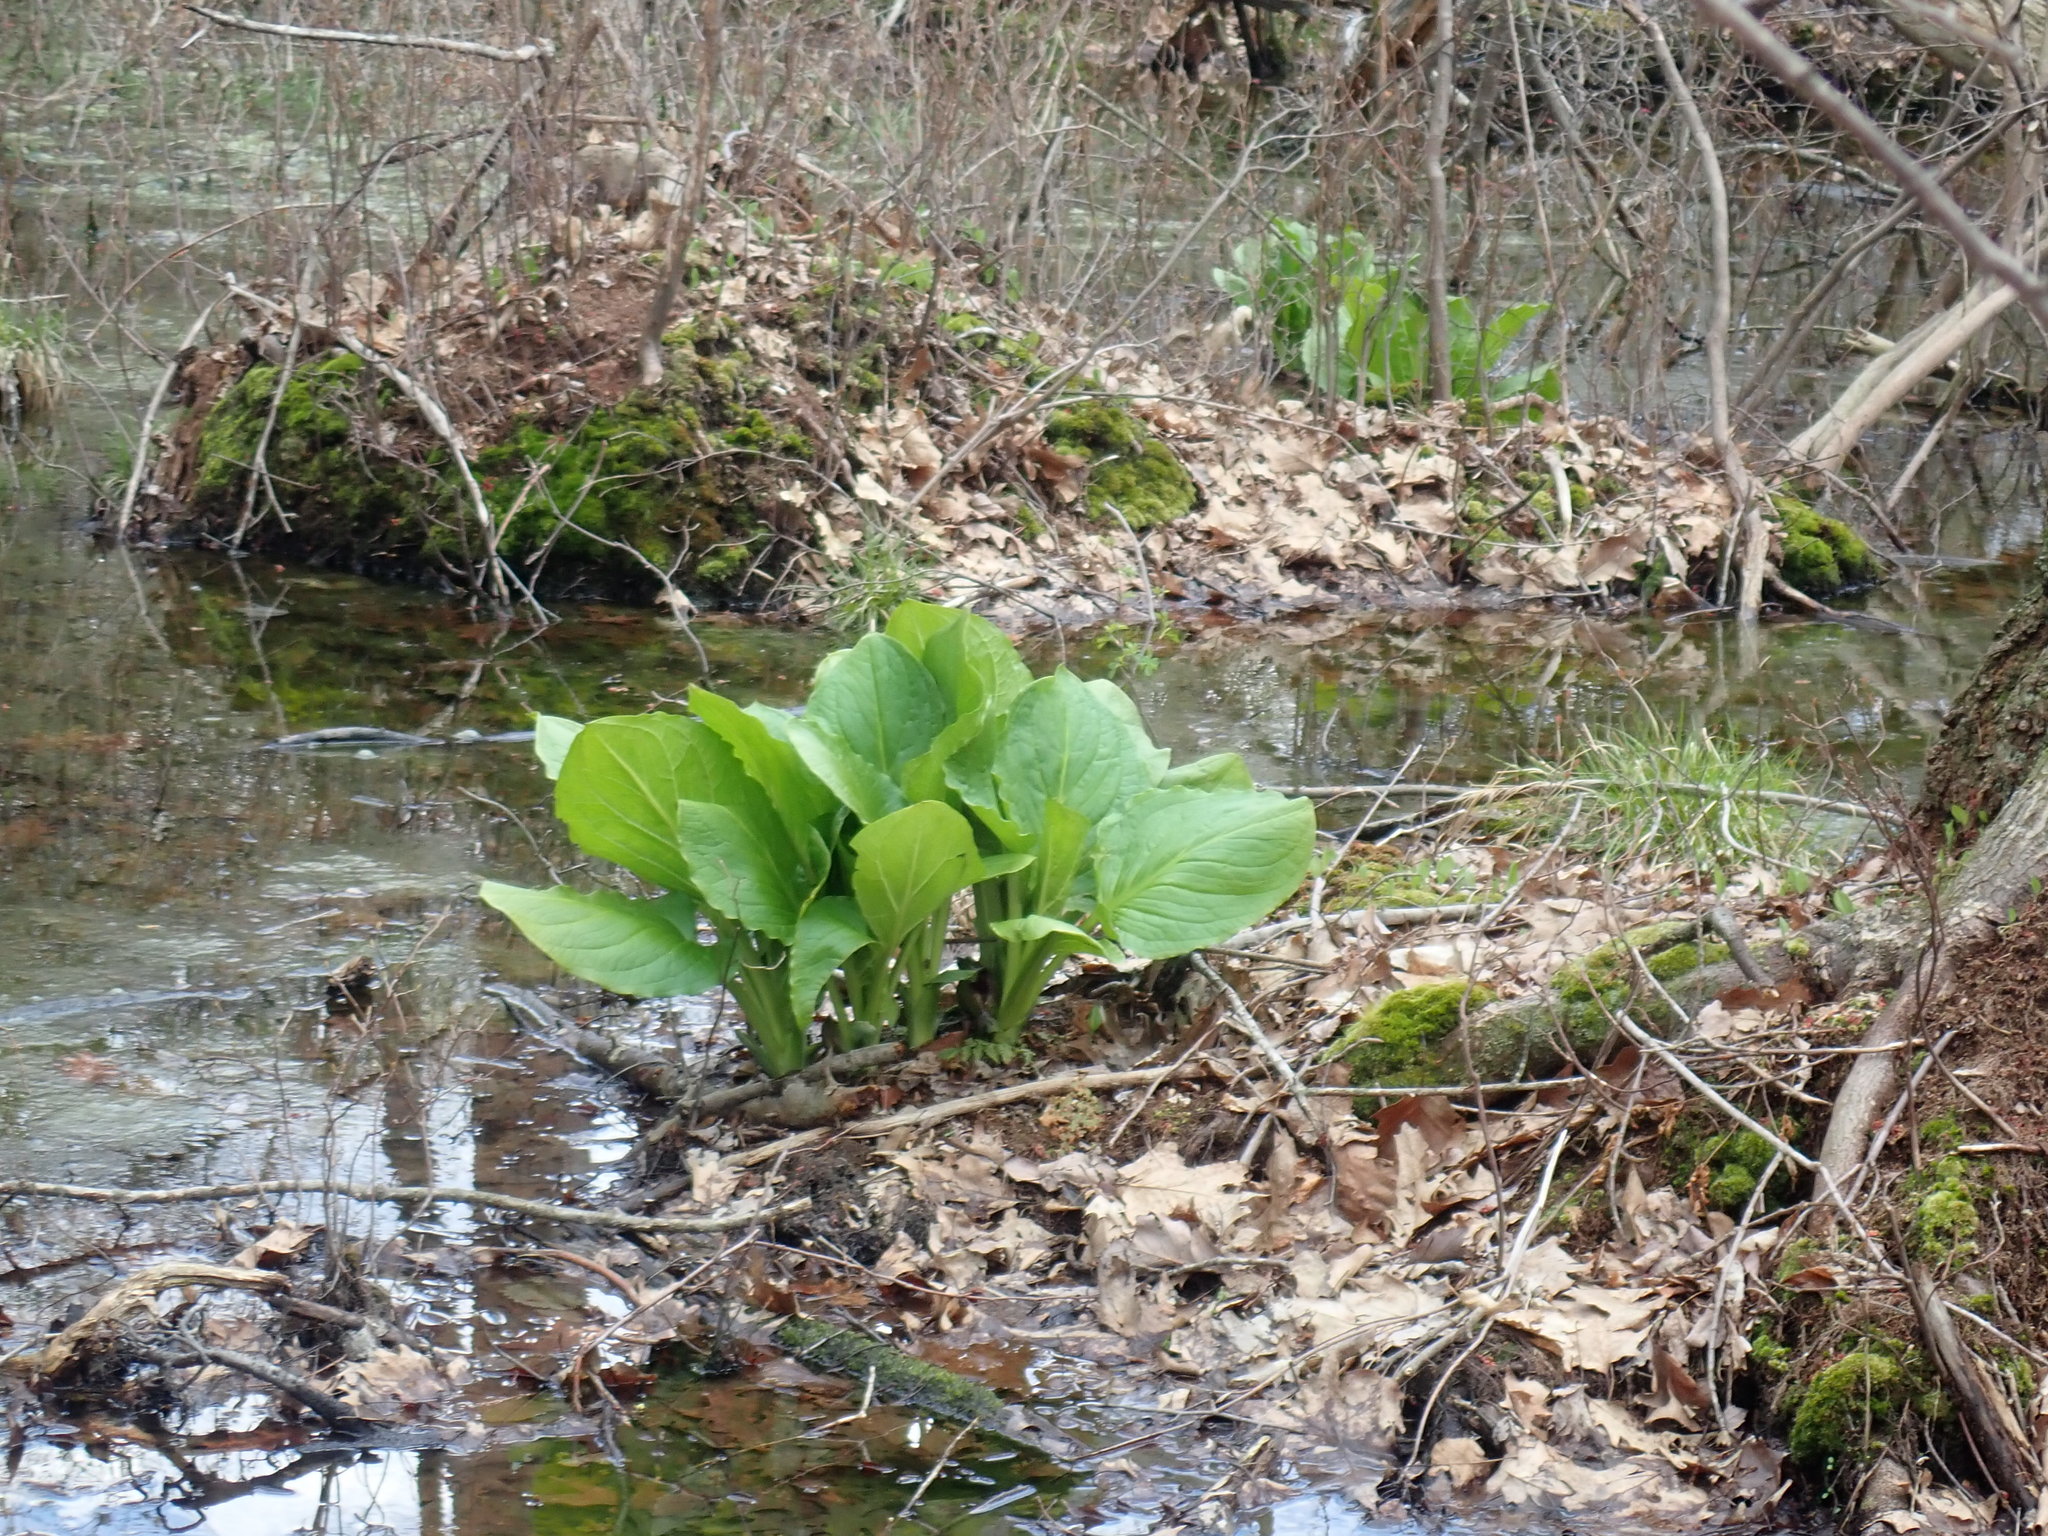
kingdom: Plantae
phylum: Tracheophyta
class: Liliopsida
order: Alismatales
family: Araceae
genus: Symplocarpus
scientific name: Symplocarpus foetidus
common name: Eastern skunk cabbage
